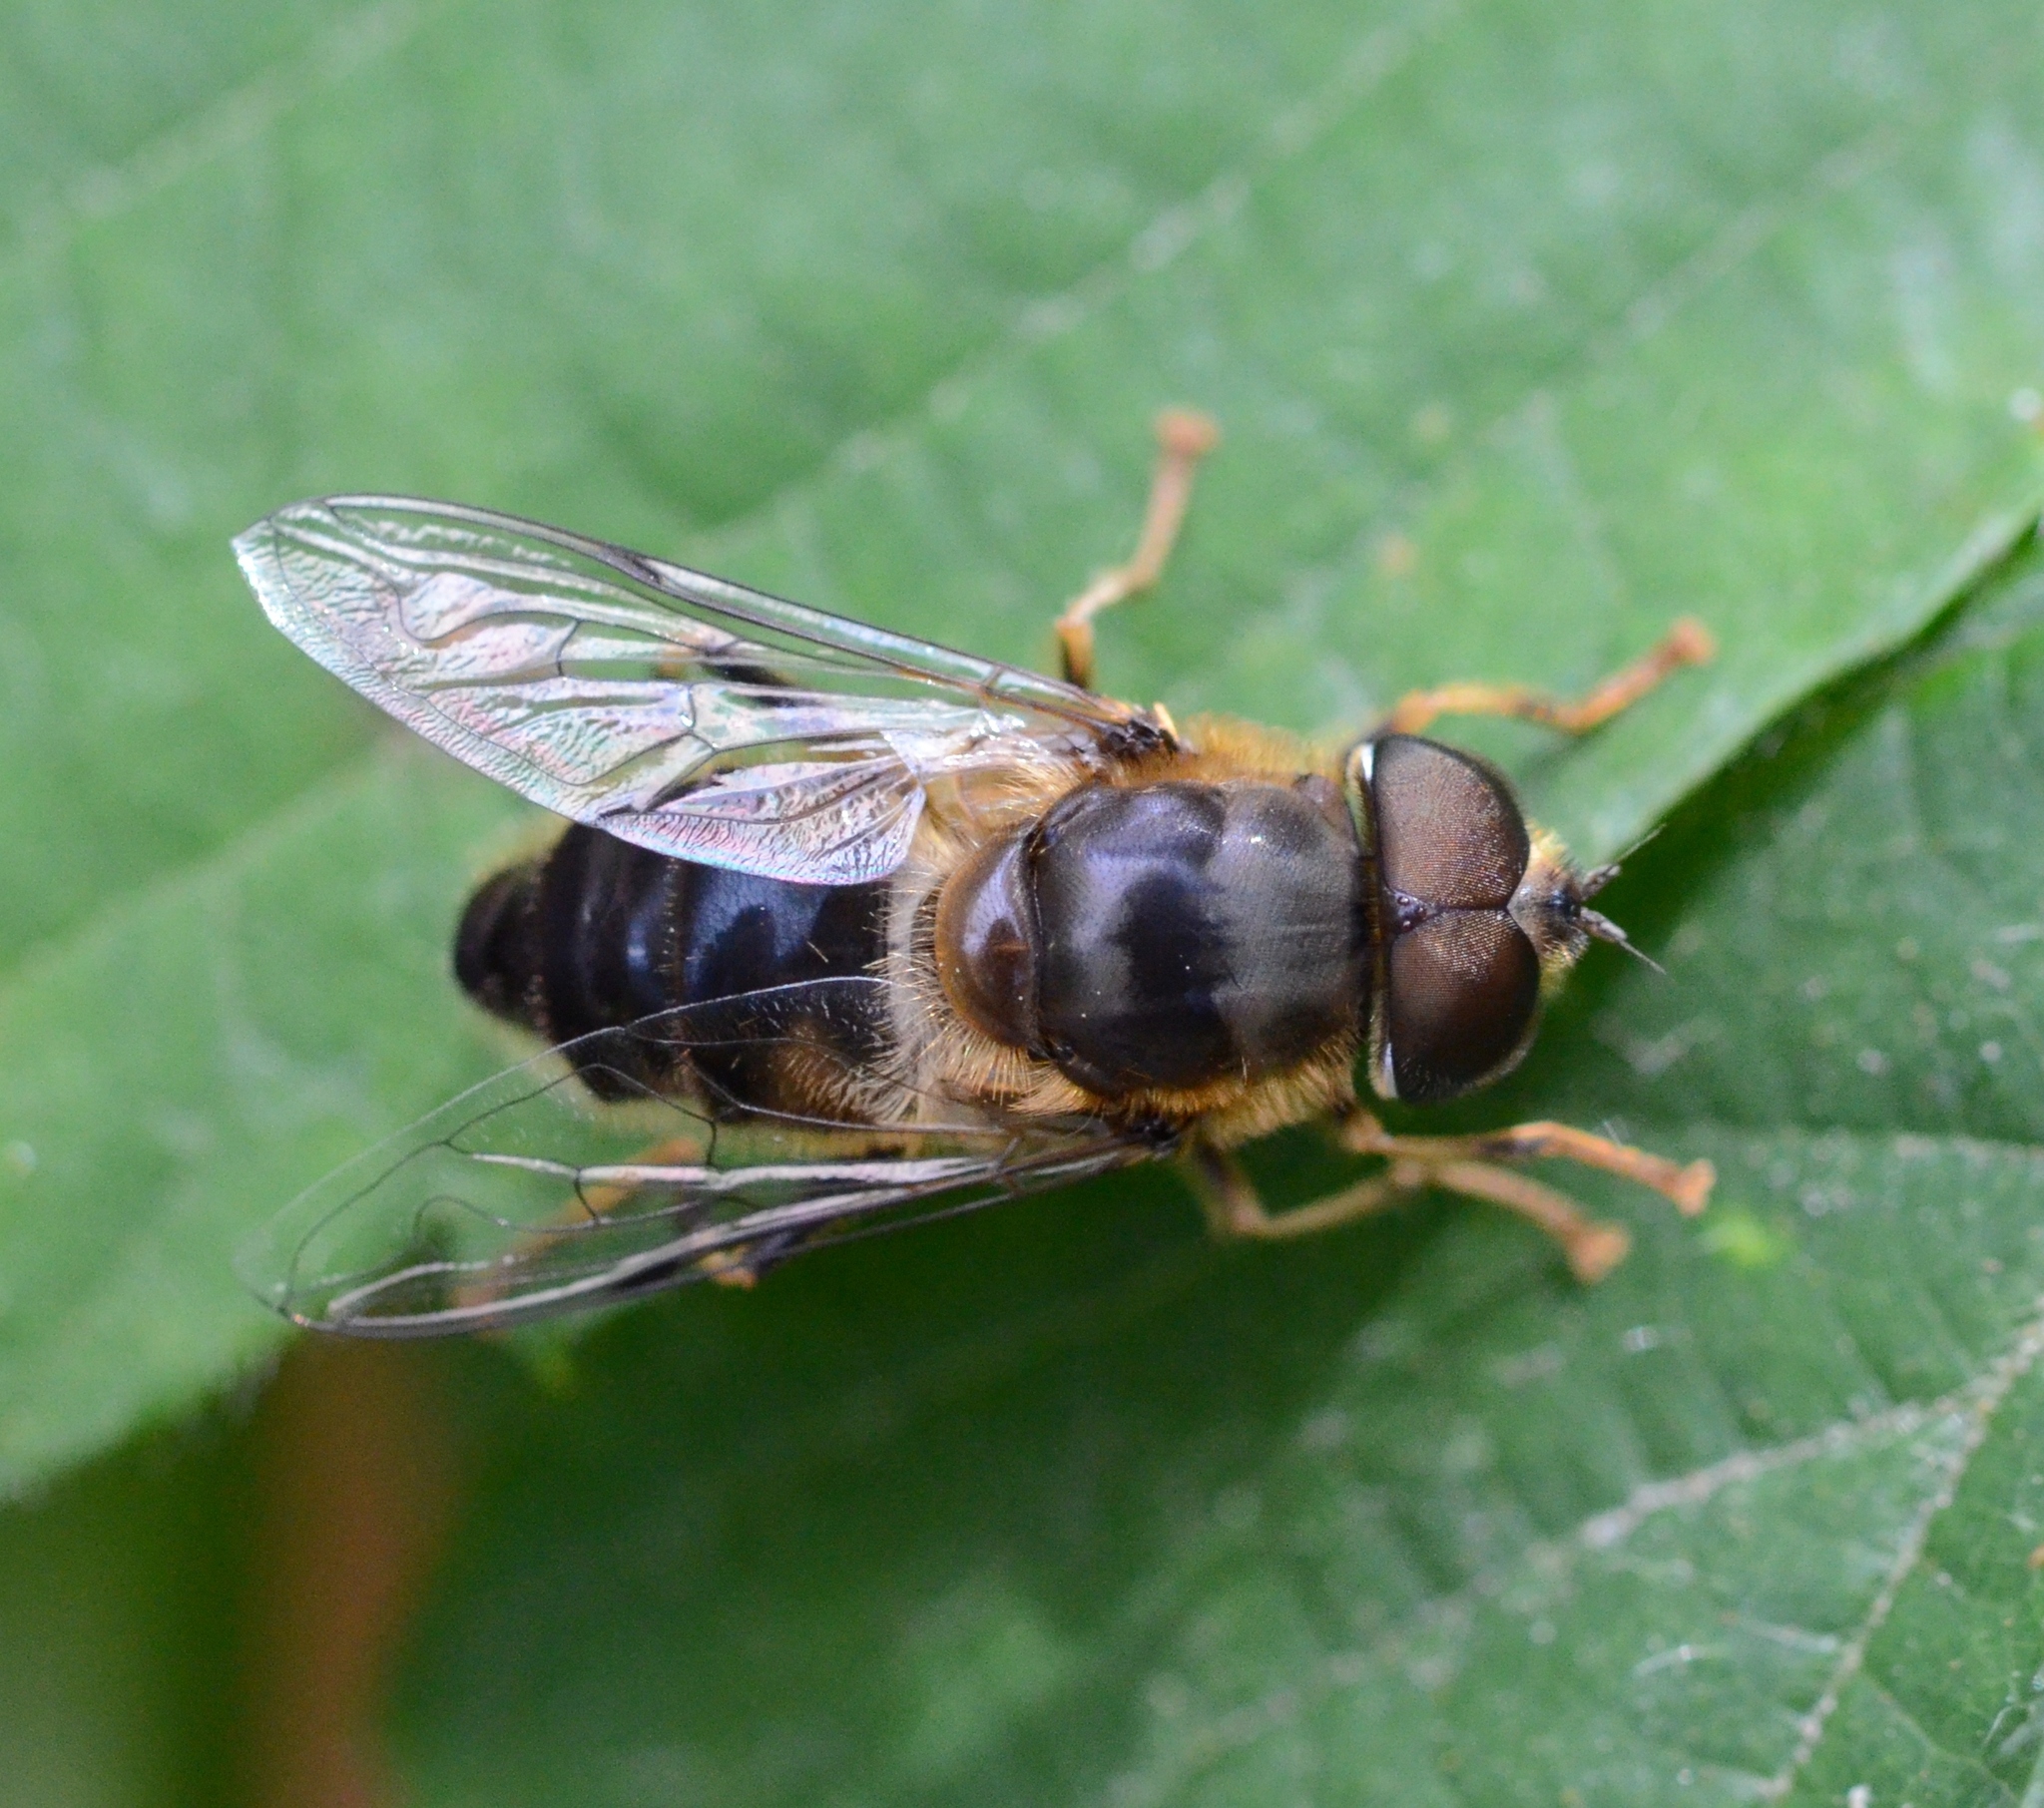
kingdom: Animalia
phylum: Arthropoda
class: Insecta
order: Diptera
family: Syrphidae
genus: Eristalis
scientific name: Eristalis pertinax
